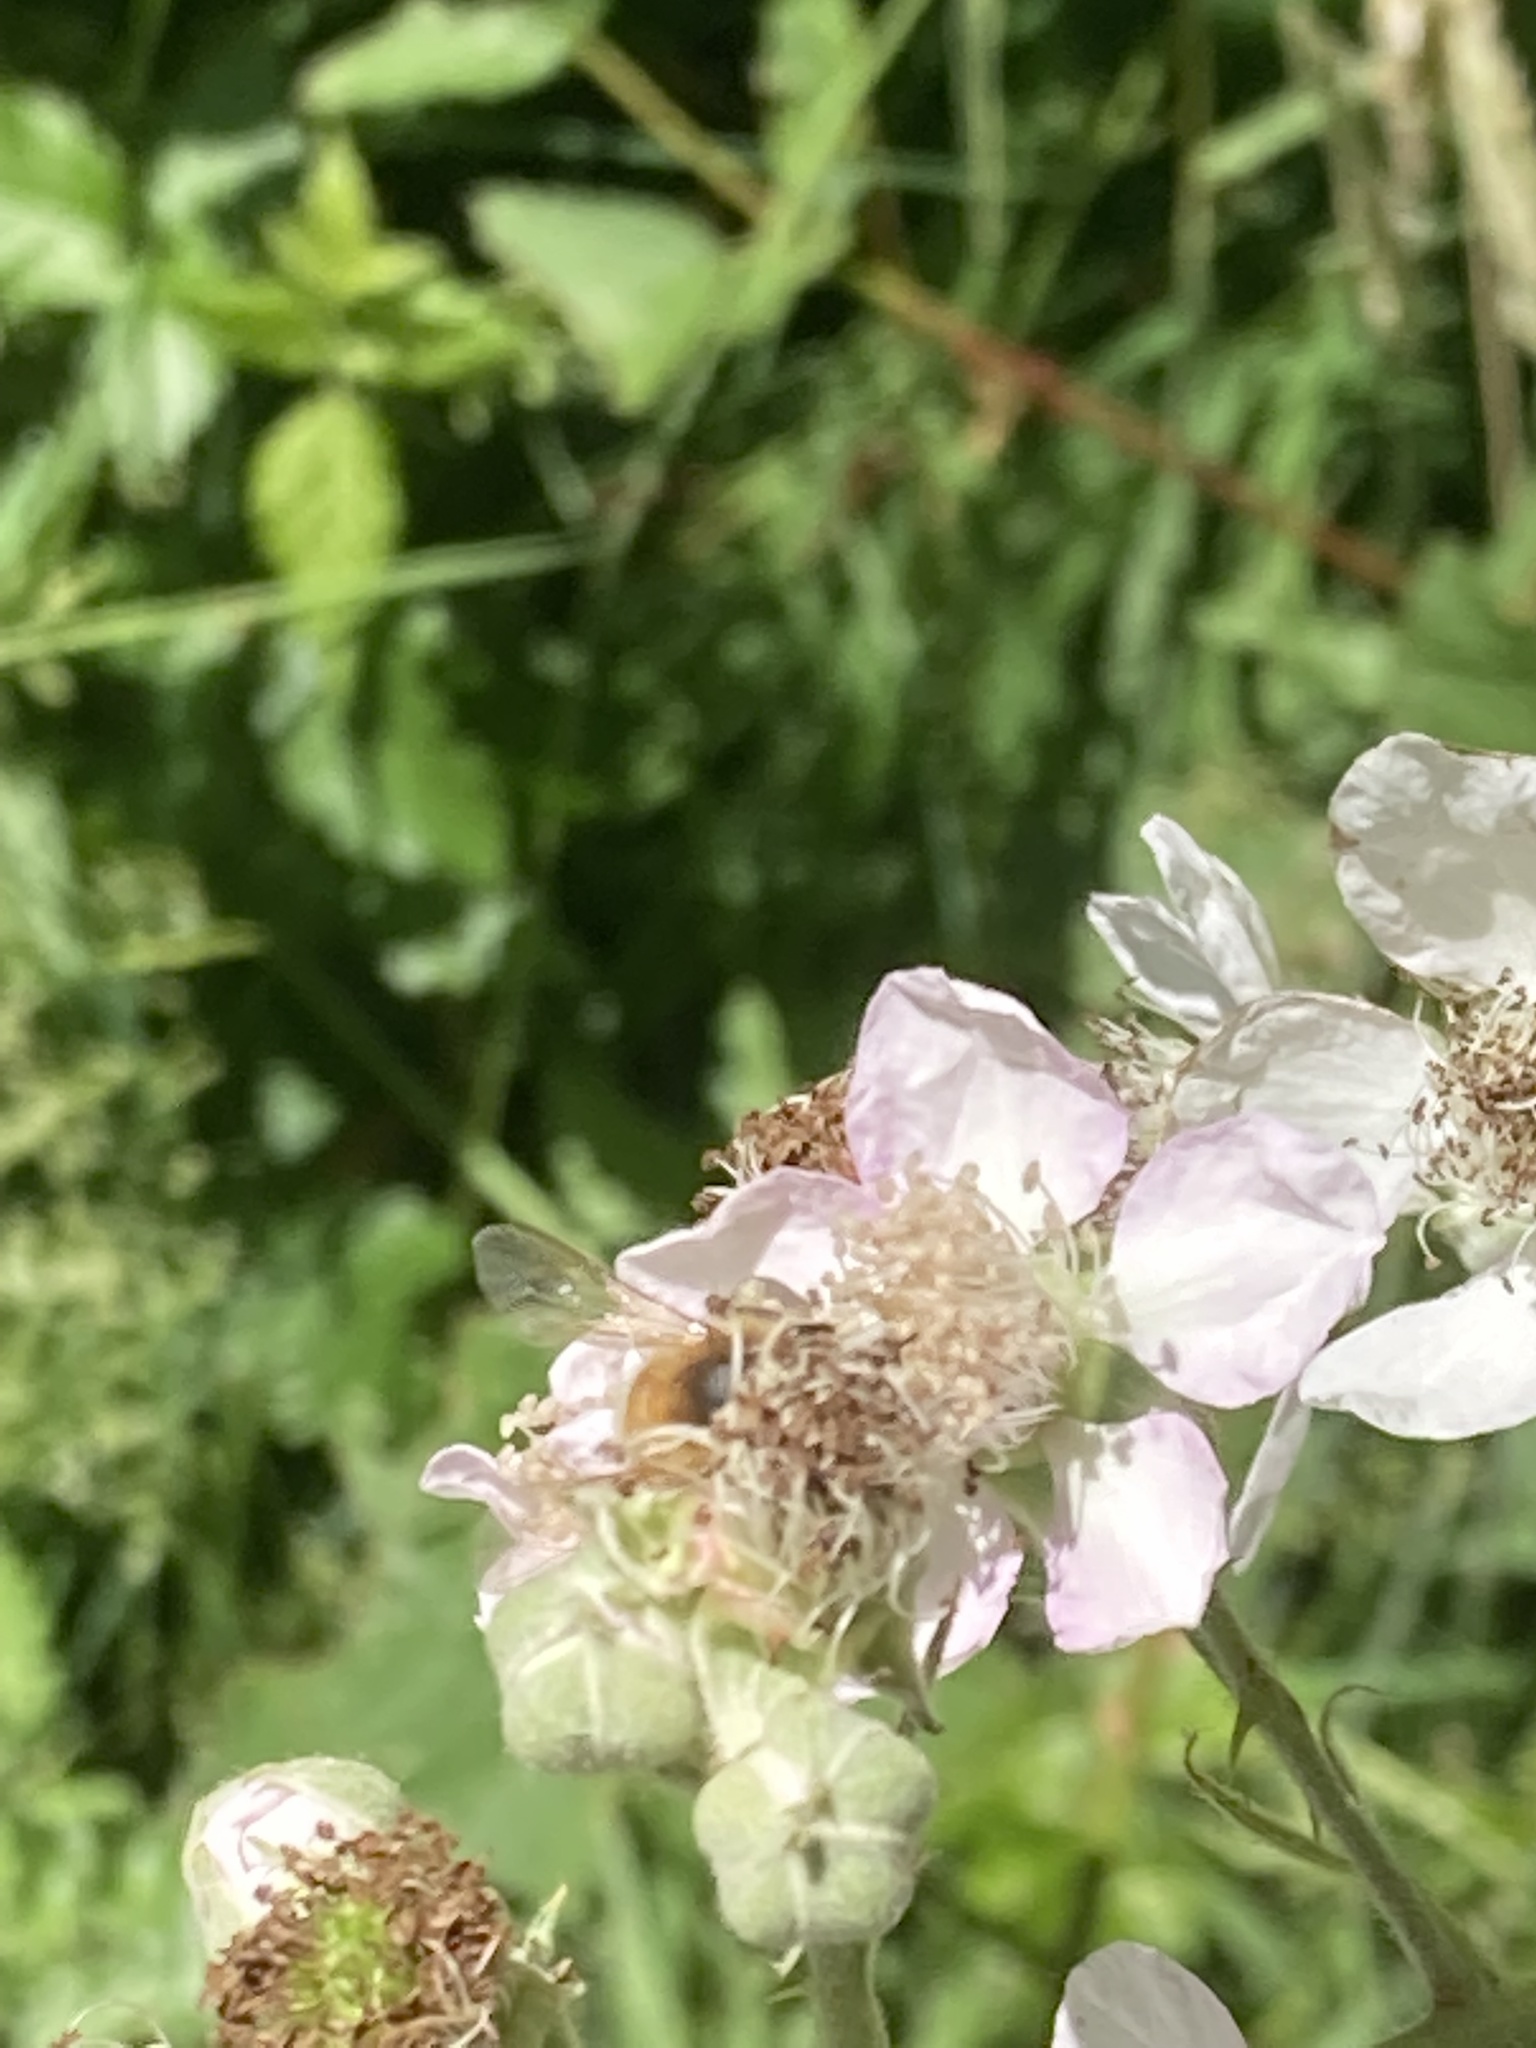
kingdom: Animalia
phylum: Arthropoda
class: Insecta
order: Hymenoptera
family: Apidae
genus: Apis
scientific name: Apis mellifera
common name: Honey bee
